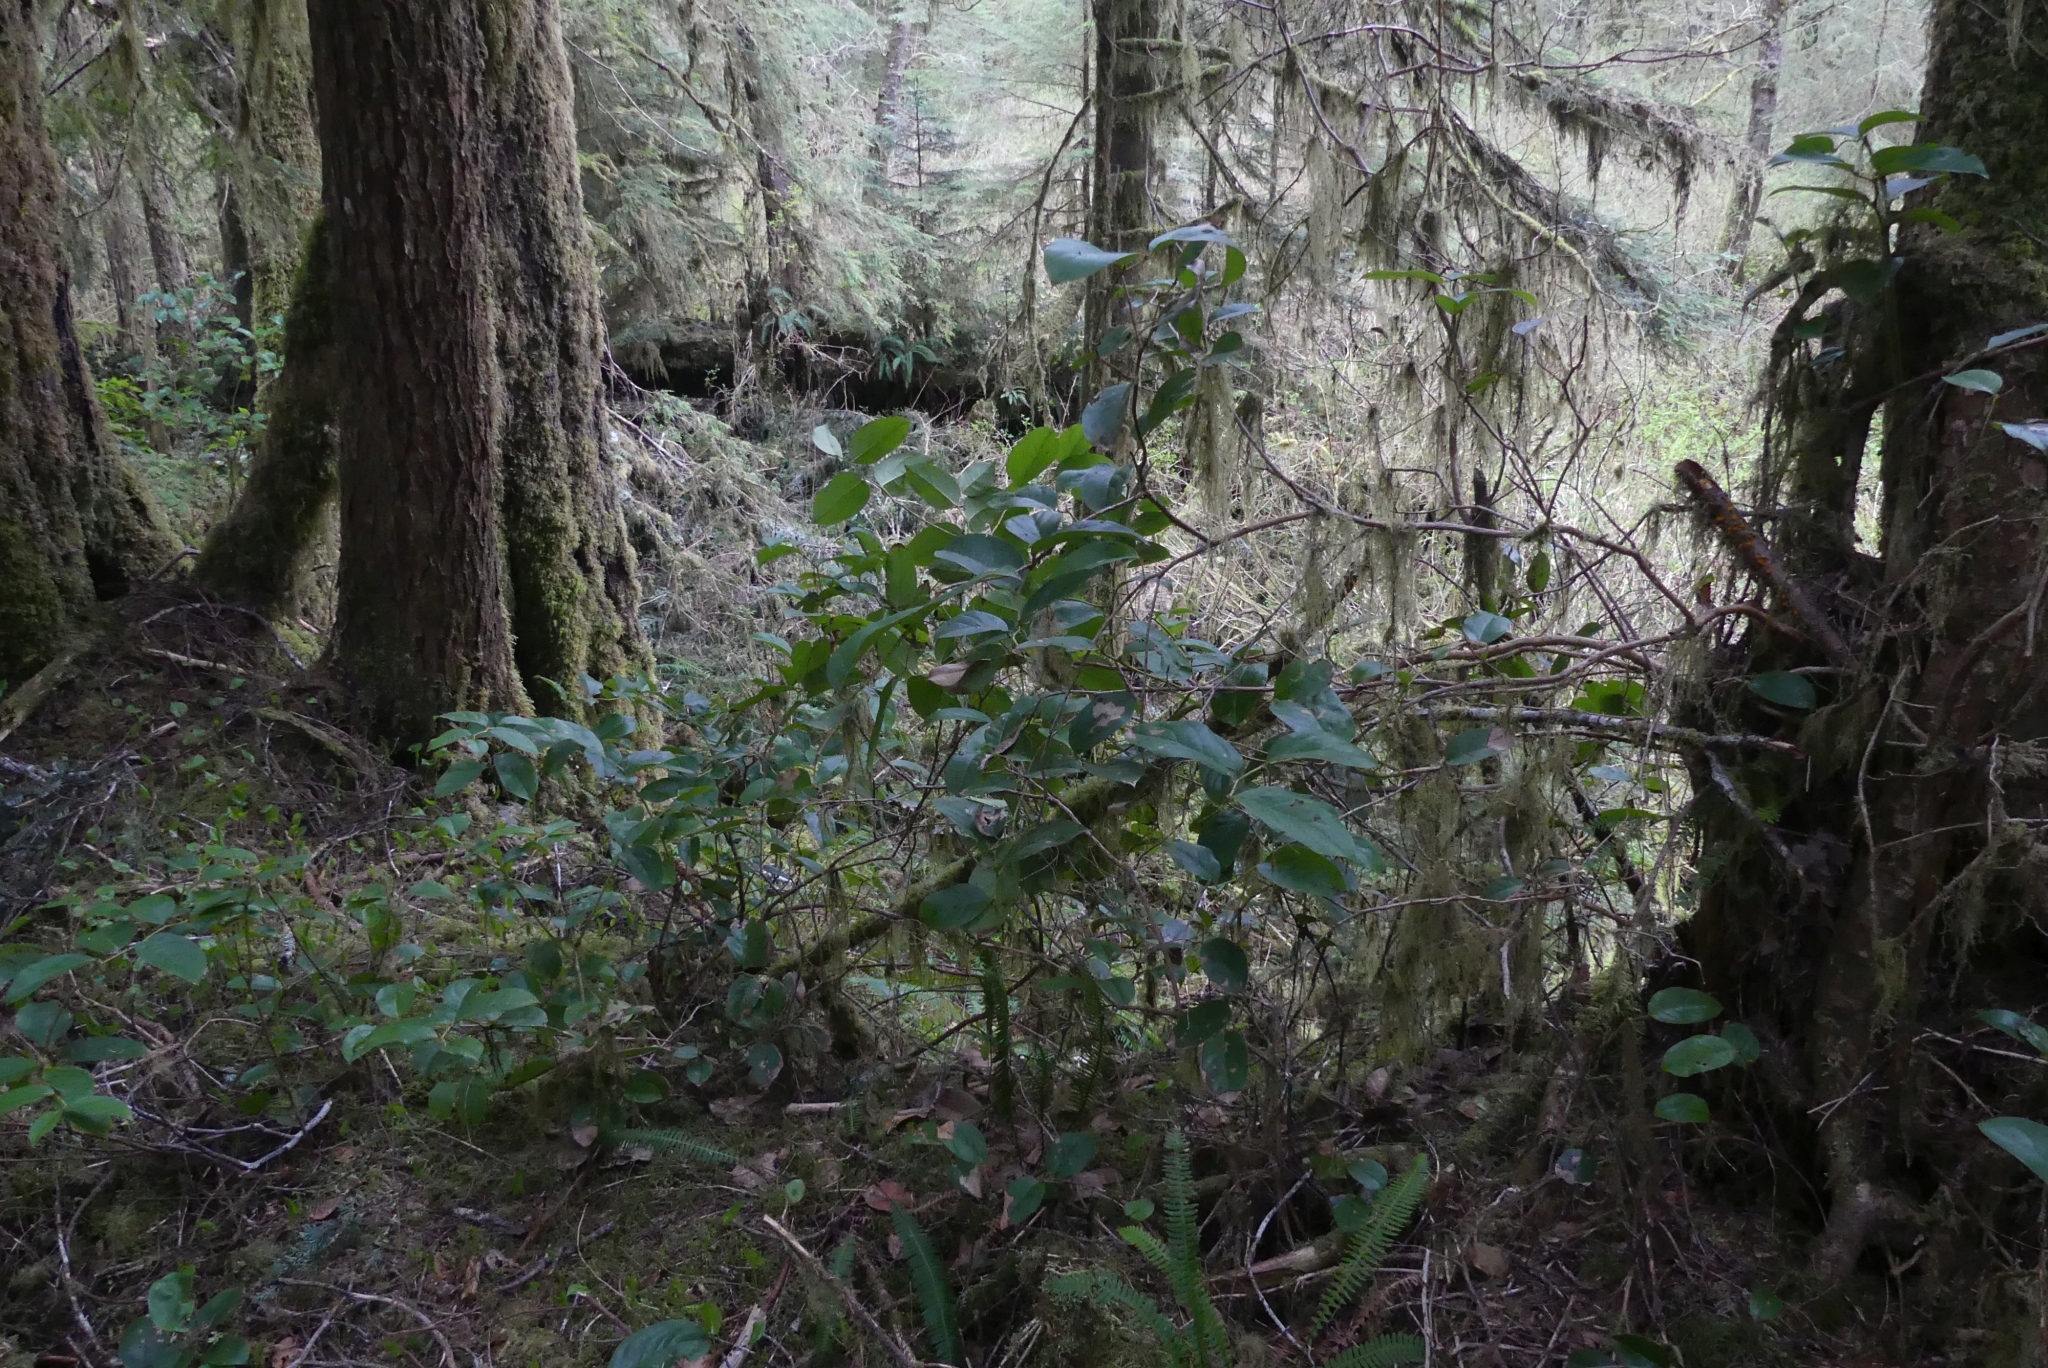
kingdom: Plantae
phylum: Tracheophyta
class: Magnoliopsida
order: Ericales
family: Ericaceae
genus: Gaultheria
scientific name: Gaultheria shallon
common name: Shallon
